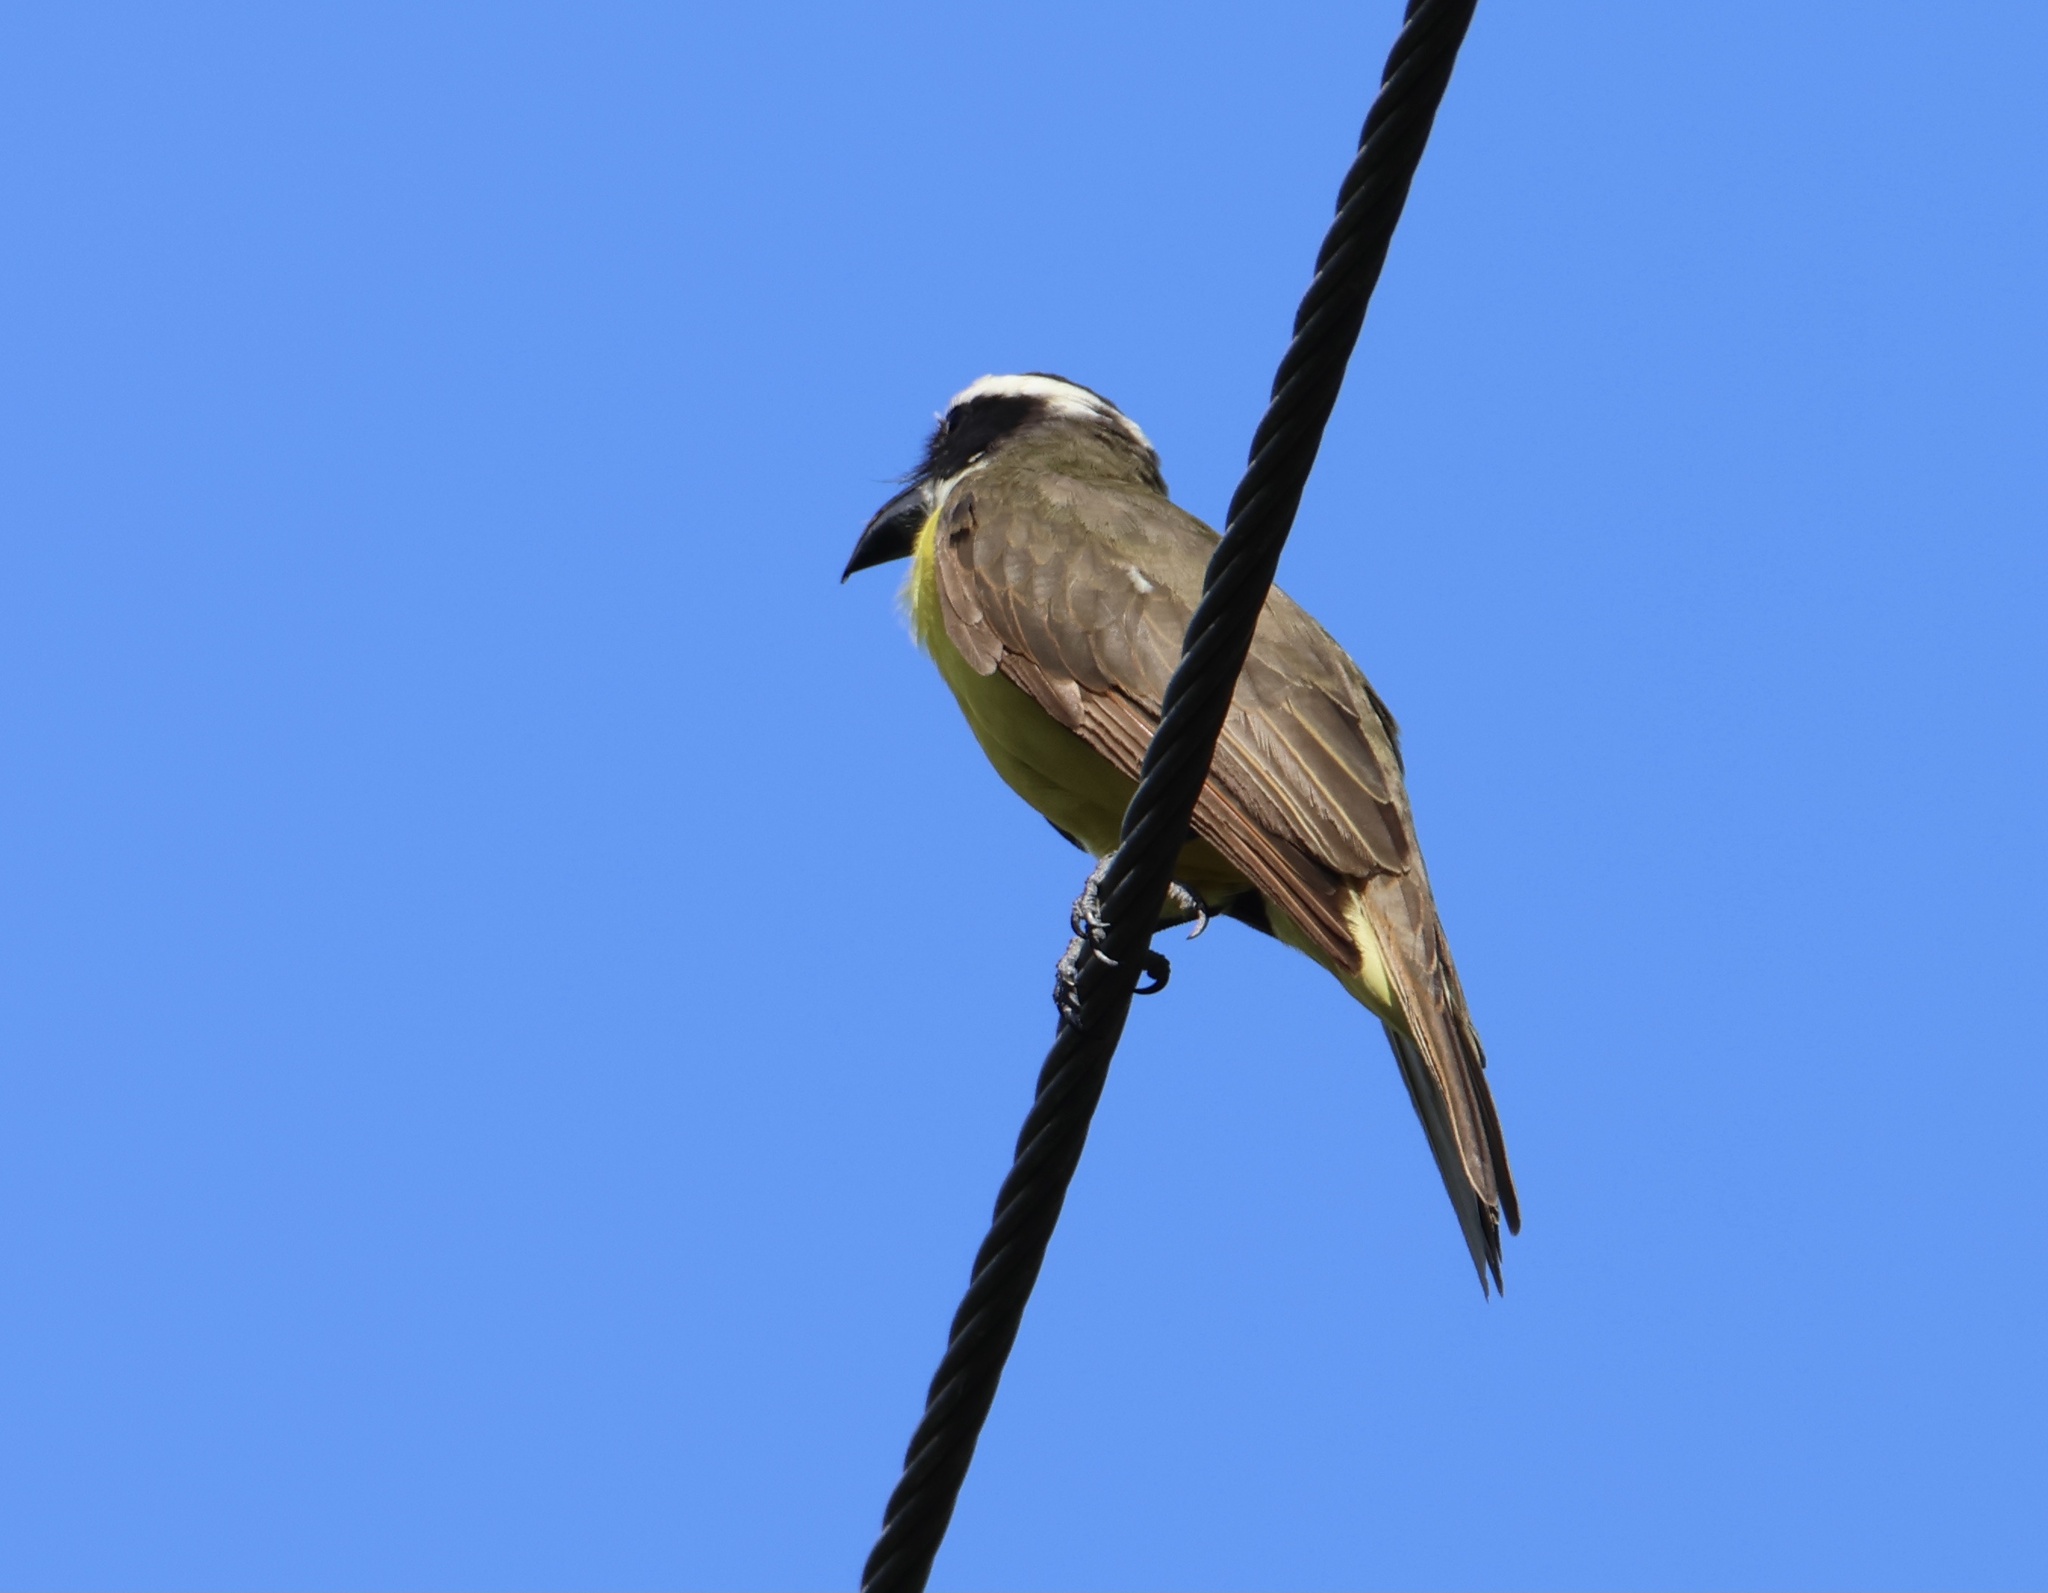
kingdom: Animalia
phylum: Chordata
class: Aves
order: Passeriformes
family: Tyrannidae
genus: Megarynchus
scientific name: Megarynchus pitangua
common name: Boat-billed flycatcher
